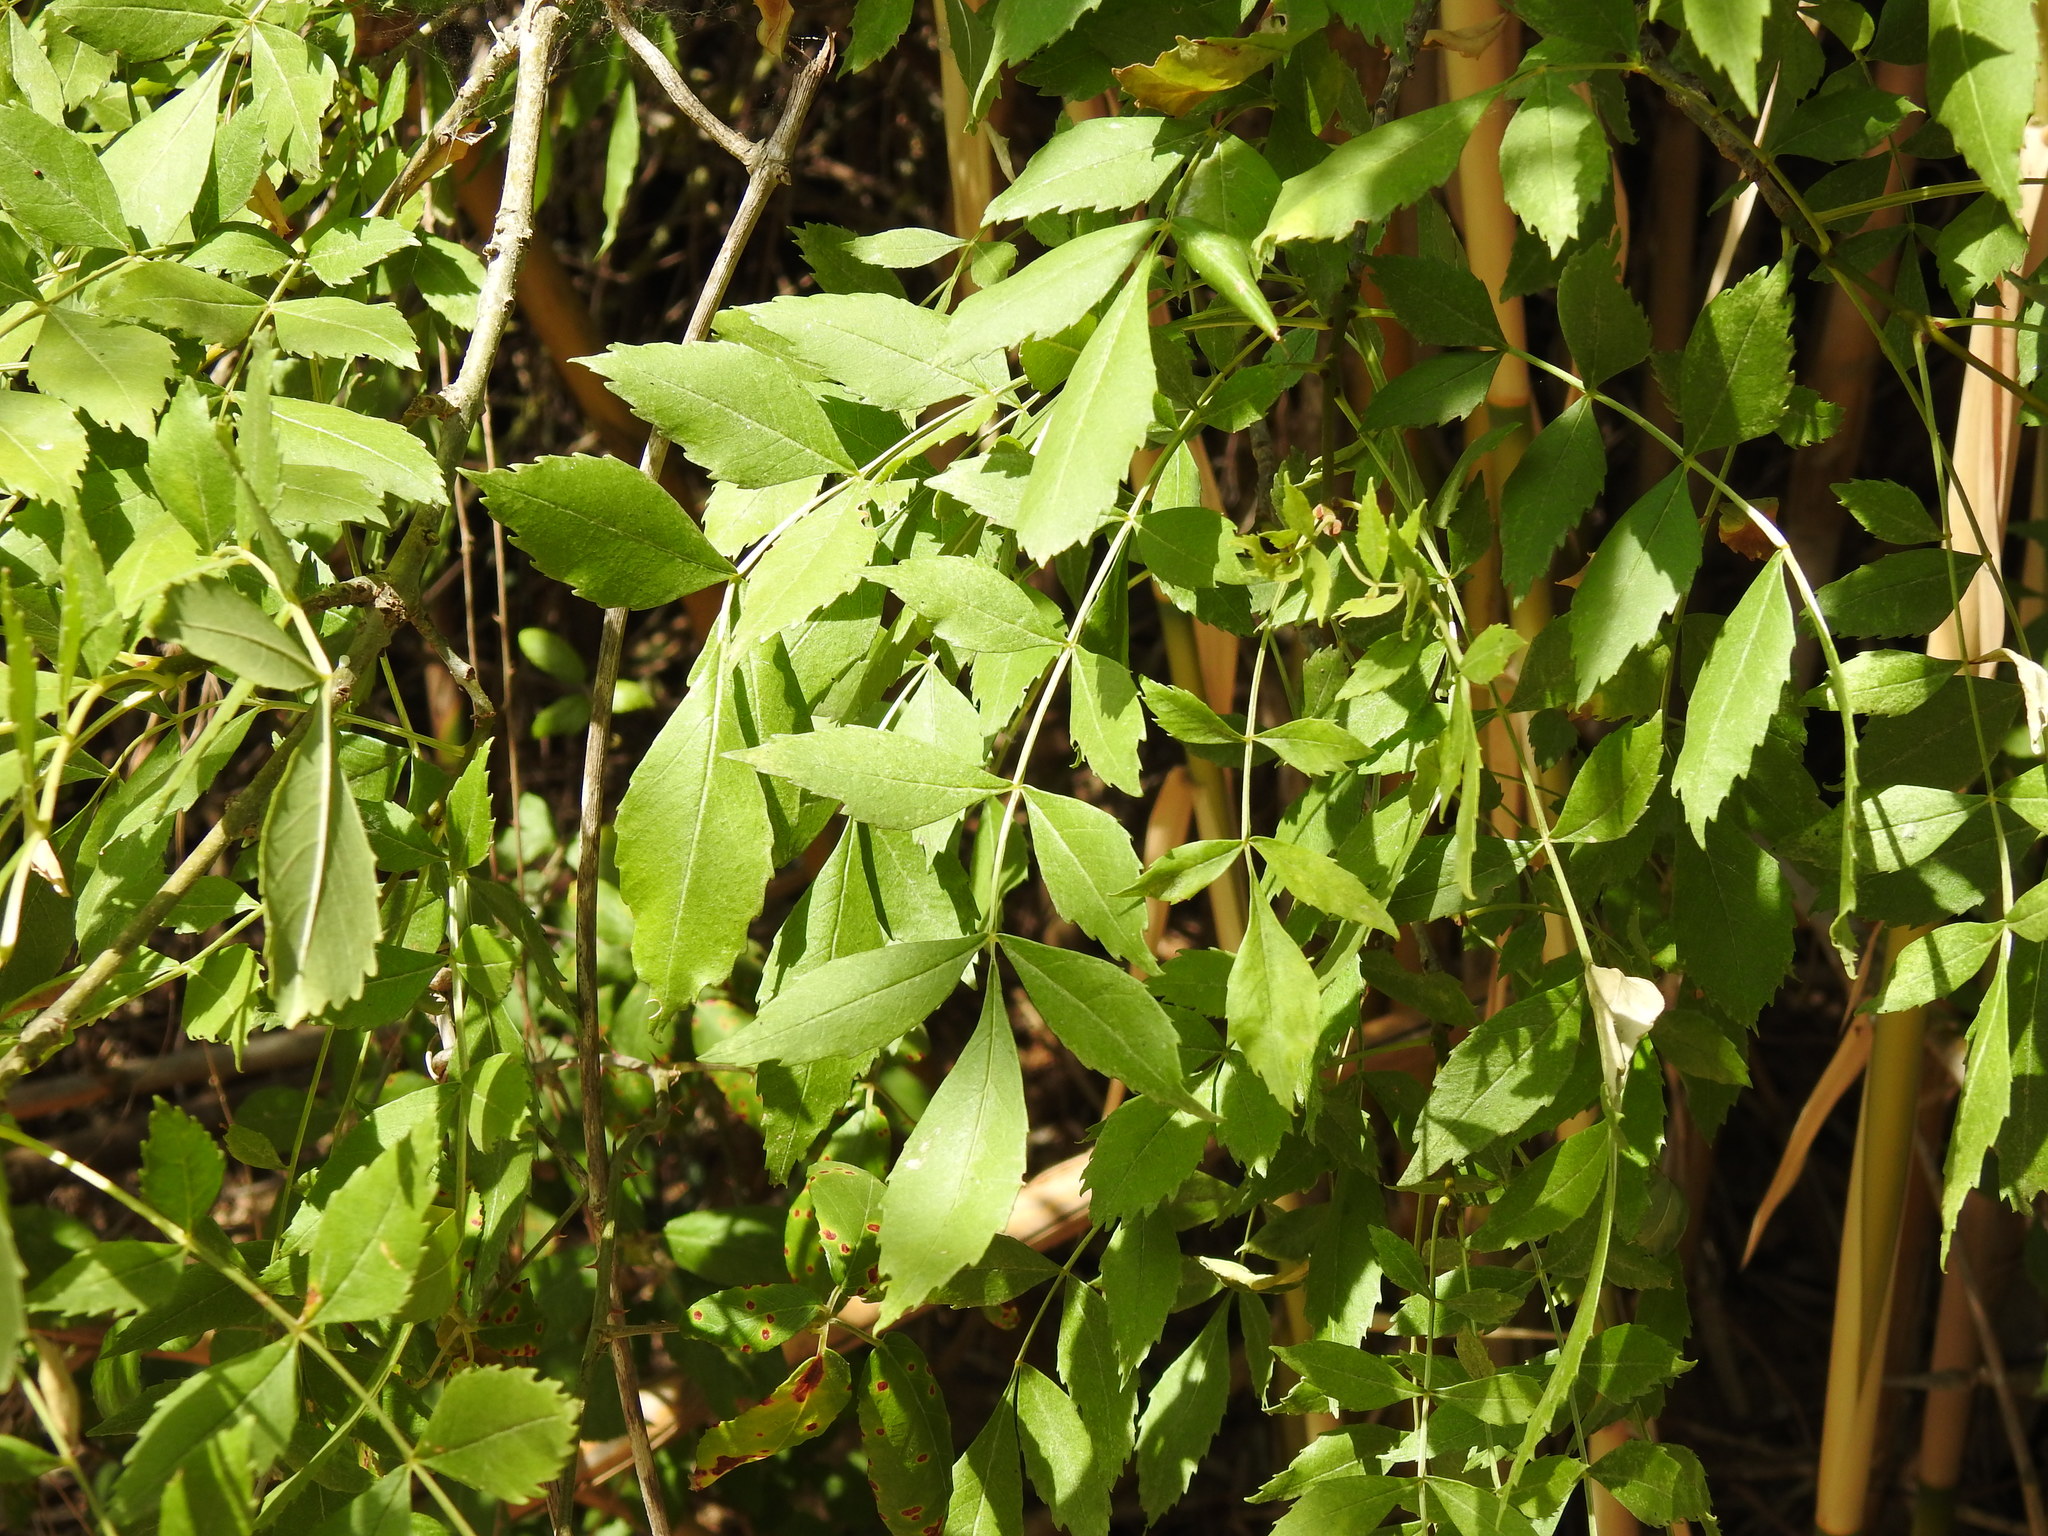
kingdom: Plantae
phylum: Tracheophyta
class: Magnoliopsida
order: Lamiales
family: Oleaceae
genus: Fraxinus
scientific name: Fraxinus angustifolia
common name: Narrow-leafed ash
